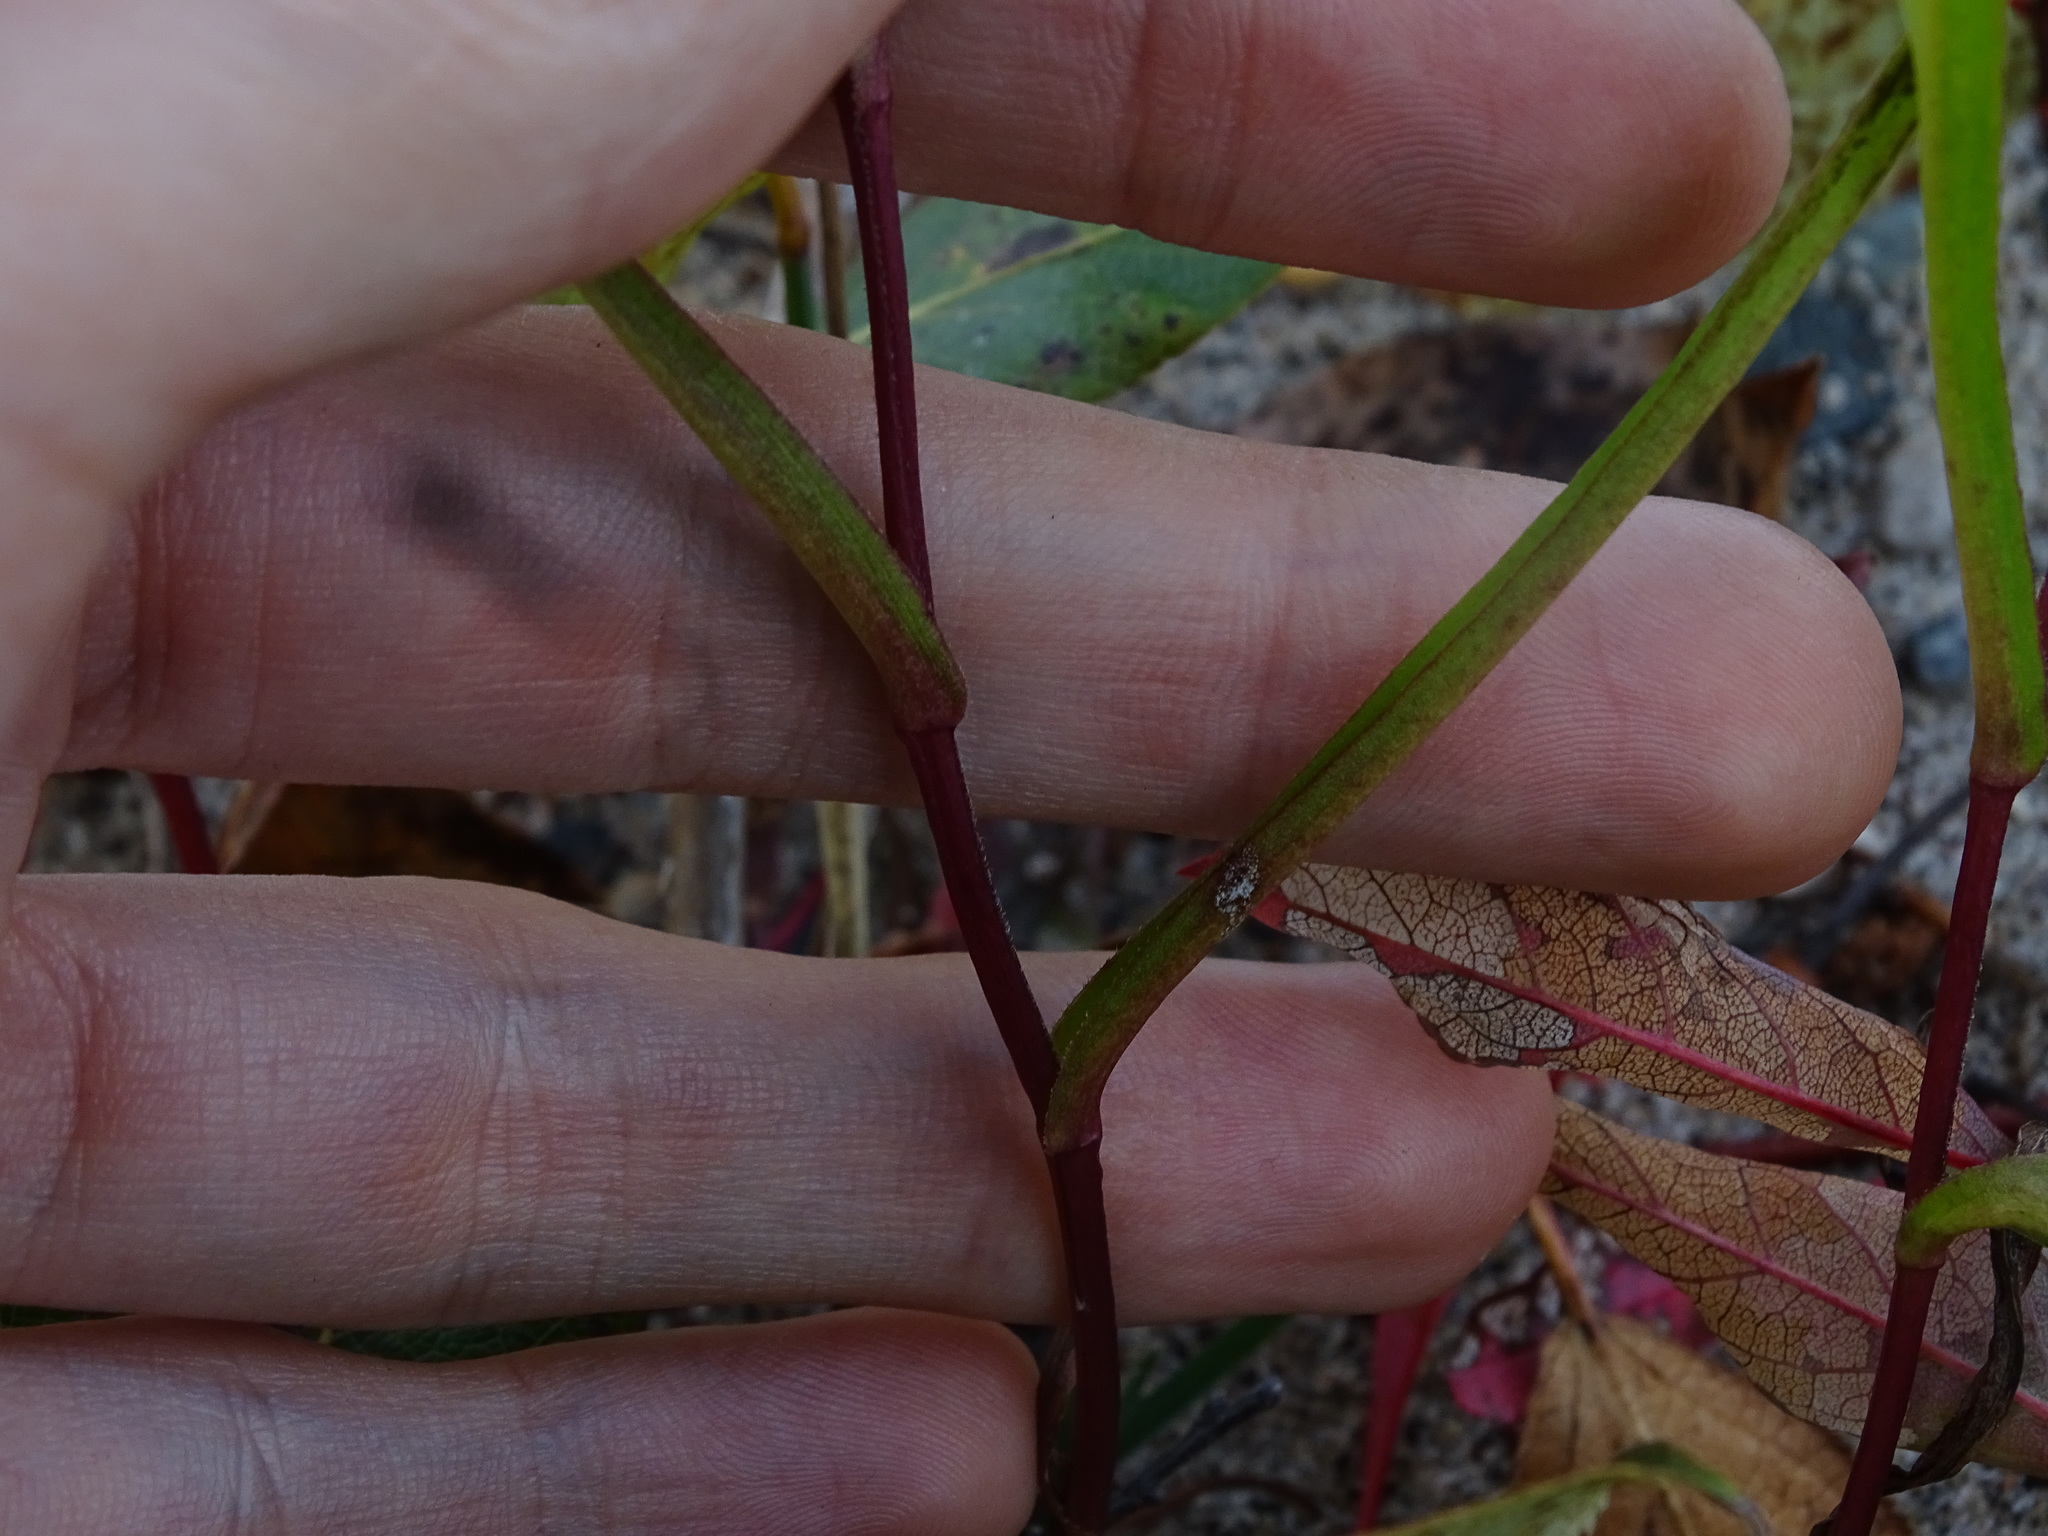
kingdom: Plantae
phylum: Tracheophyta
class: Magnoliopsida
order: Asterales
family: Asteraceae
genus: Symphyotrichum
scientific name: Symphyotrichum robynsianum
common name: Robyns' aster
